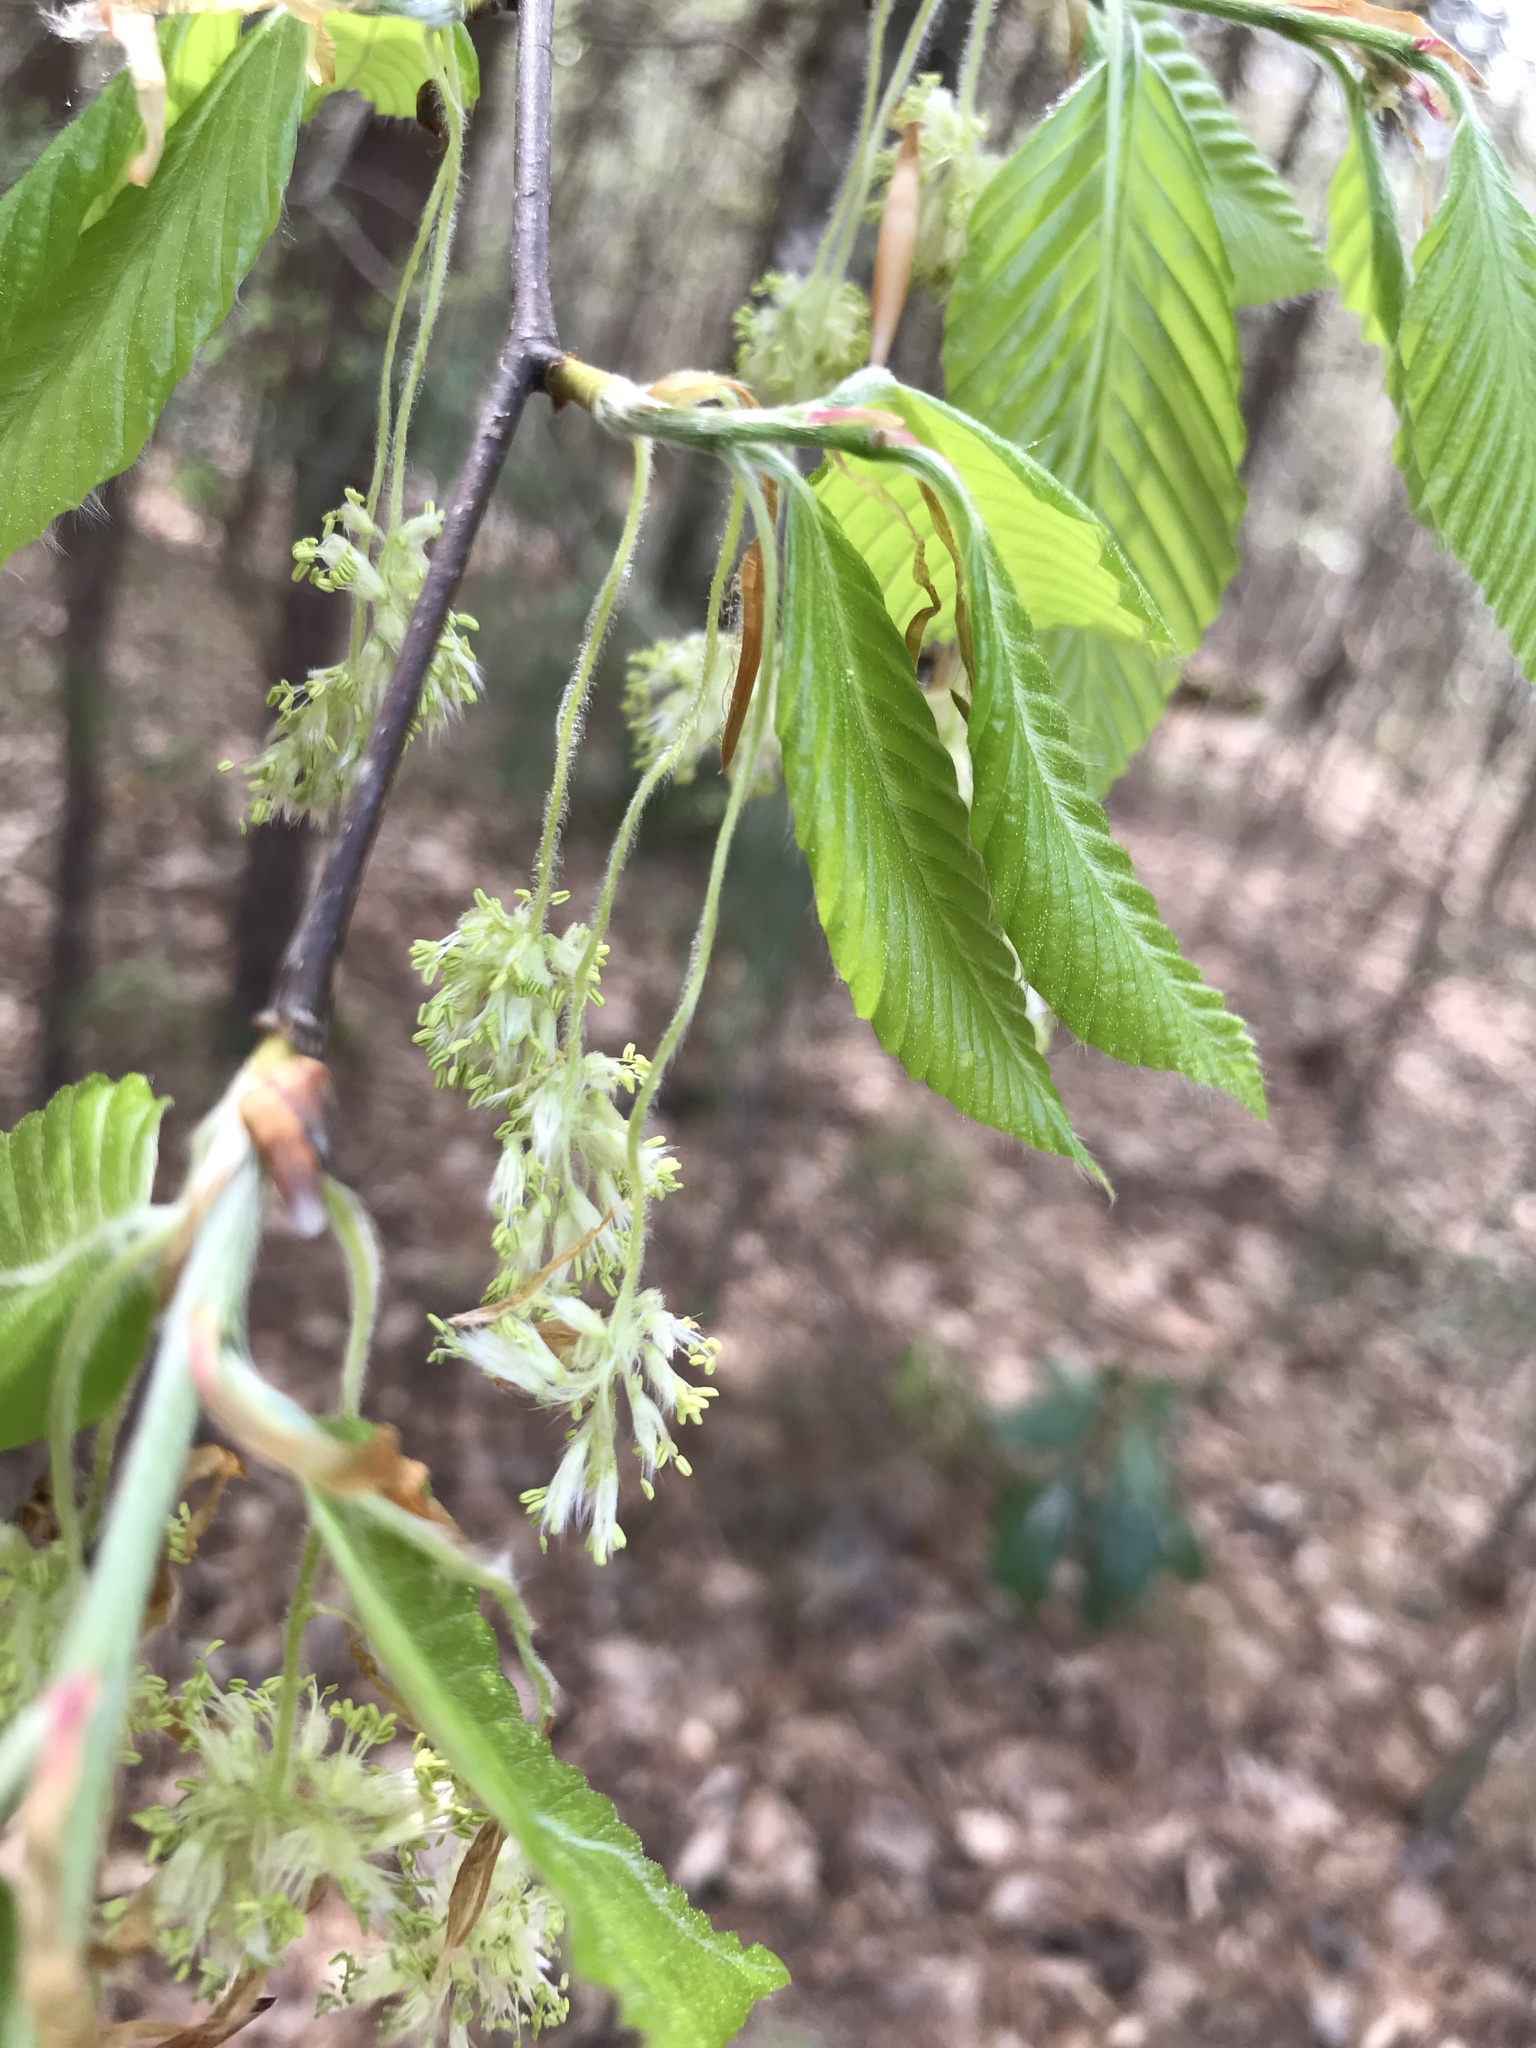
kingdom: Plantae
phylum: Tracheophyta
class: Magnoliopsida
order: Fagales
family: Fagaceae
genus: Fagus
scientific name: Fagus grandifolia
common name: American beech
